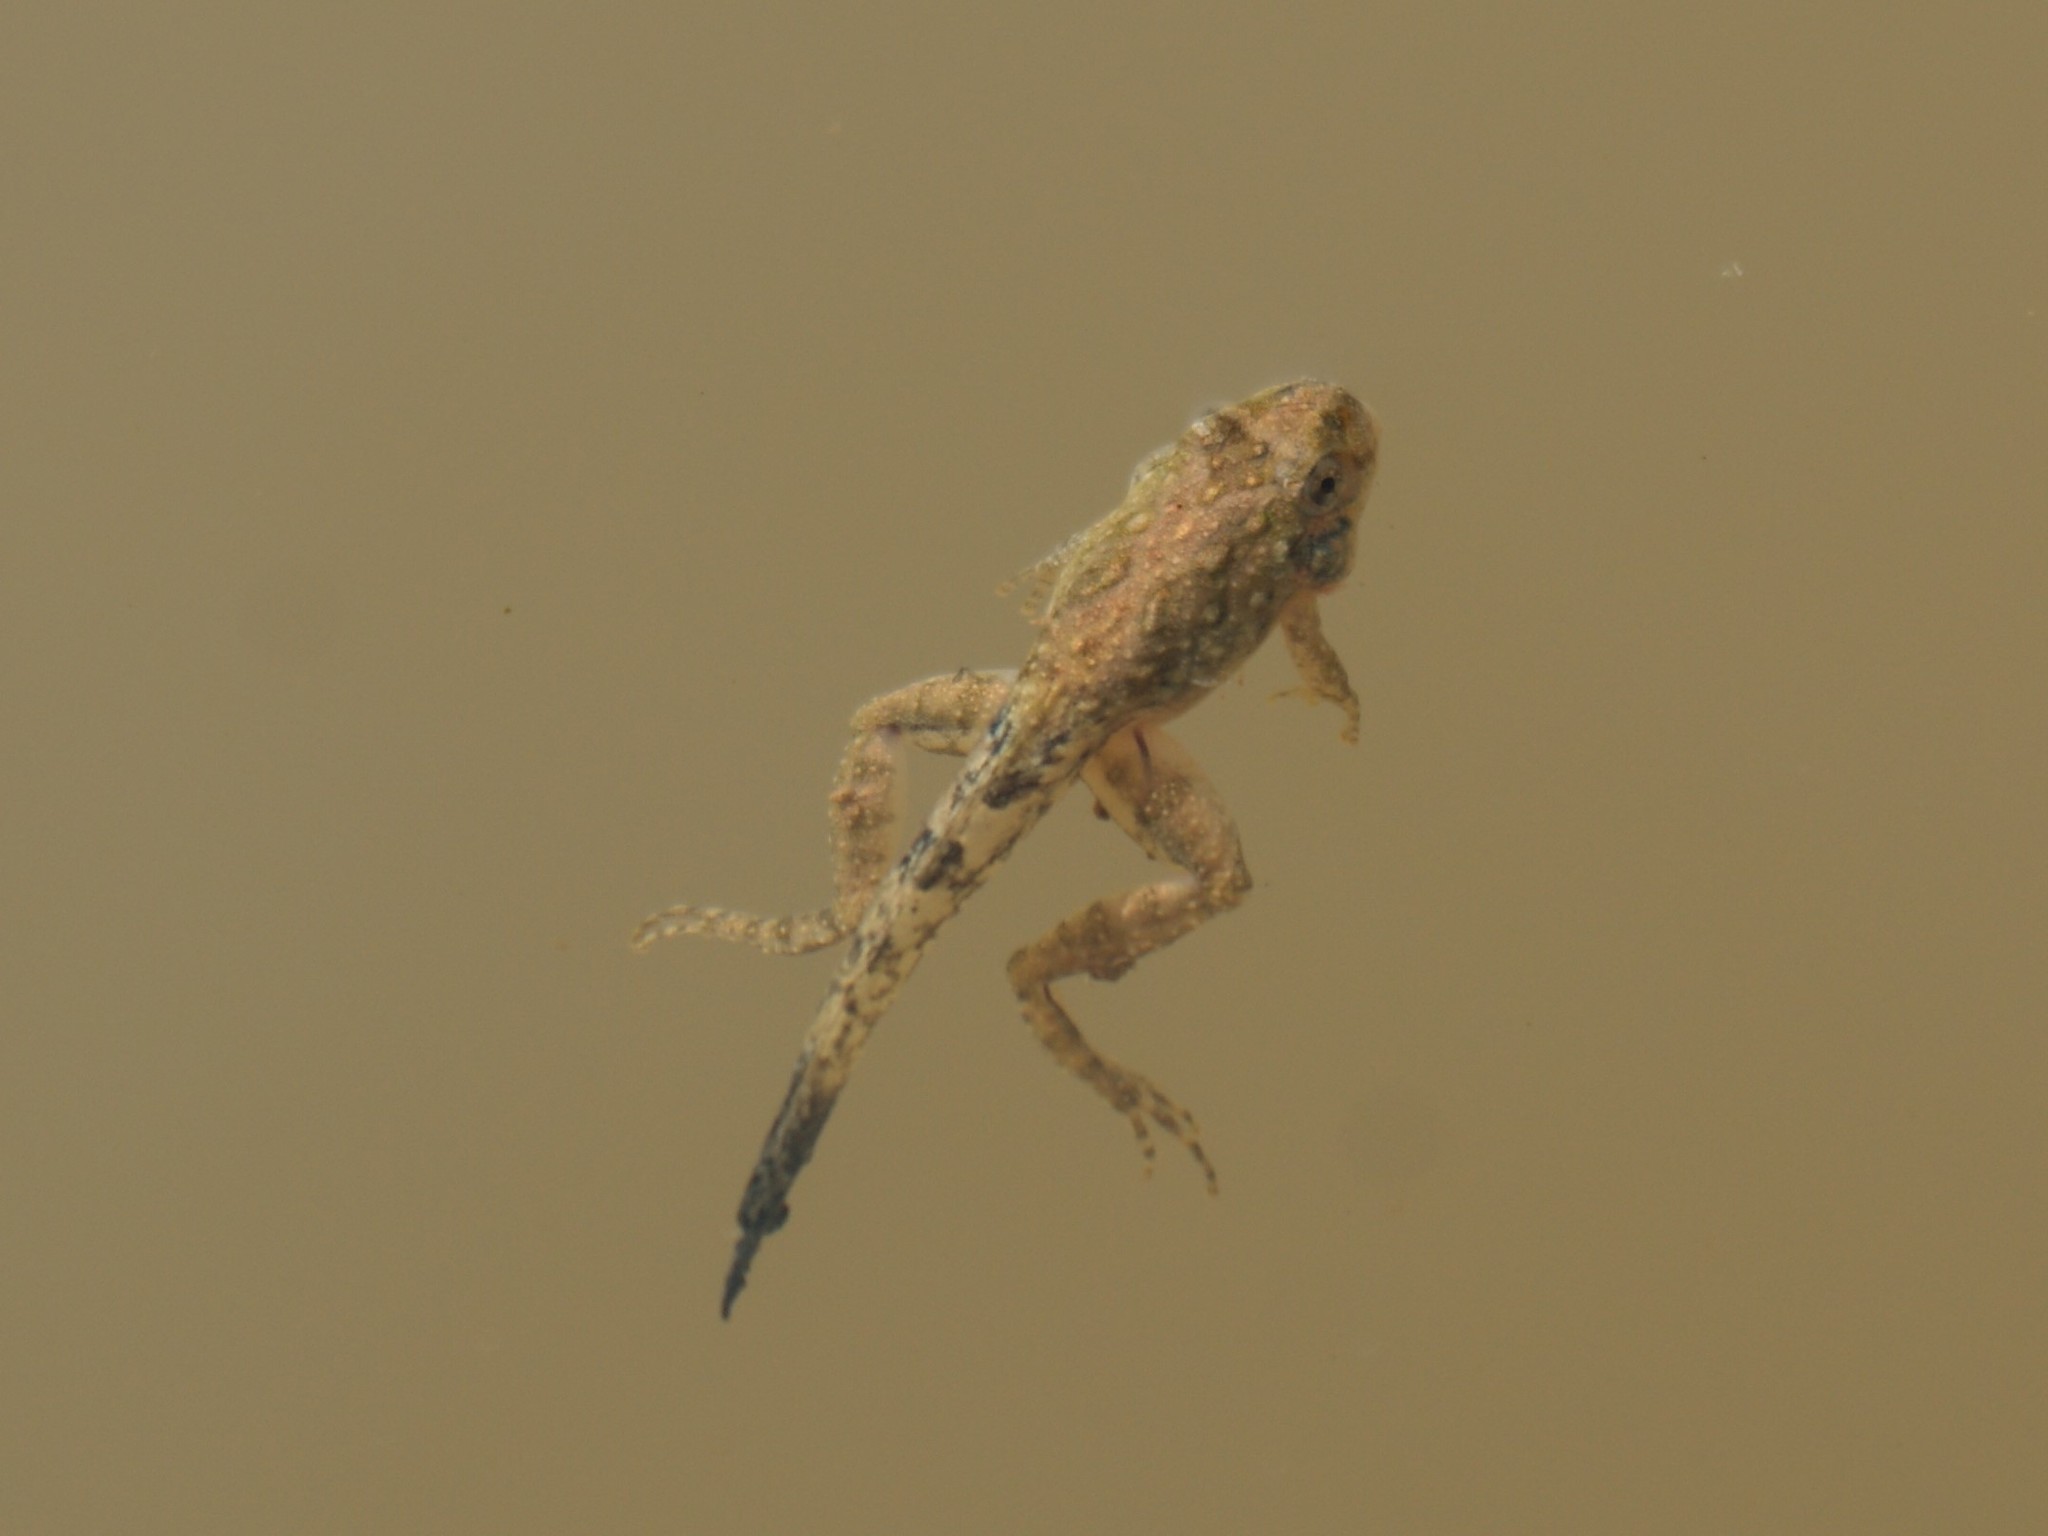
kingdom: Animalia
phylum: Chordata
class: Amphibia
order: Anura
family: Hylidae
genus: Acris
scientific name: Acris crepitans
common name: Northern cricket frog
